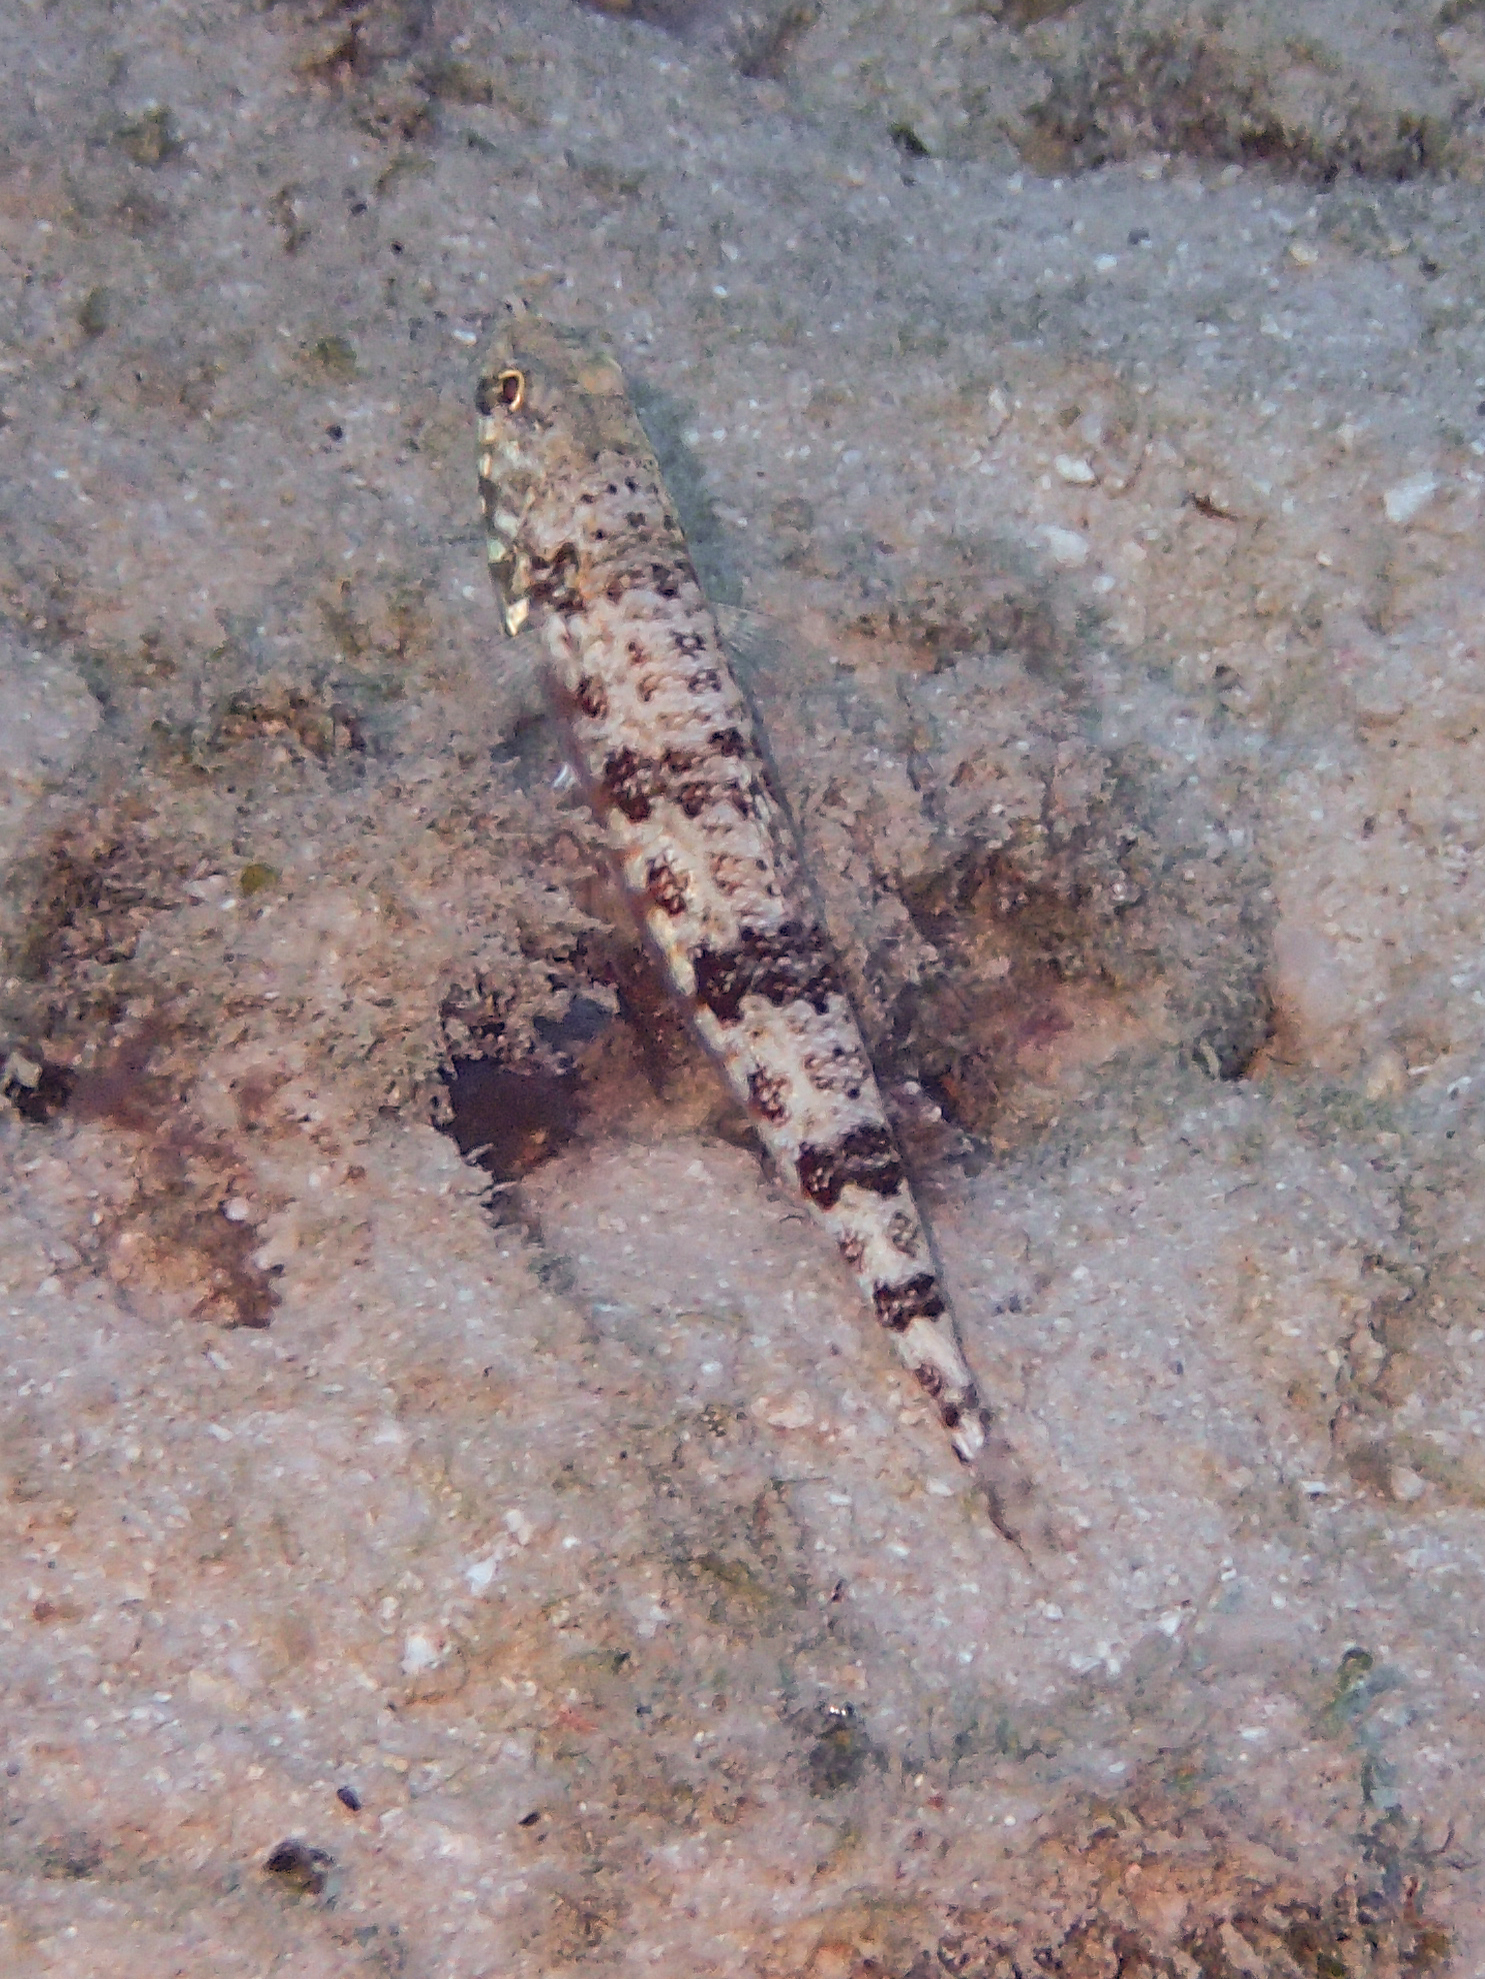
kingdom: Animalia
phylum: Chordata
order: Aulopiformes
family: Synodontidae
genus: Synodus
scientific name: Synodus variegatus
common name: Variegated lizardfish
